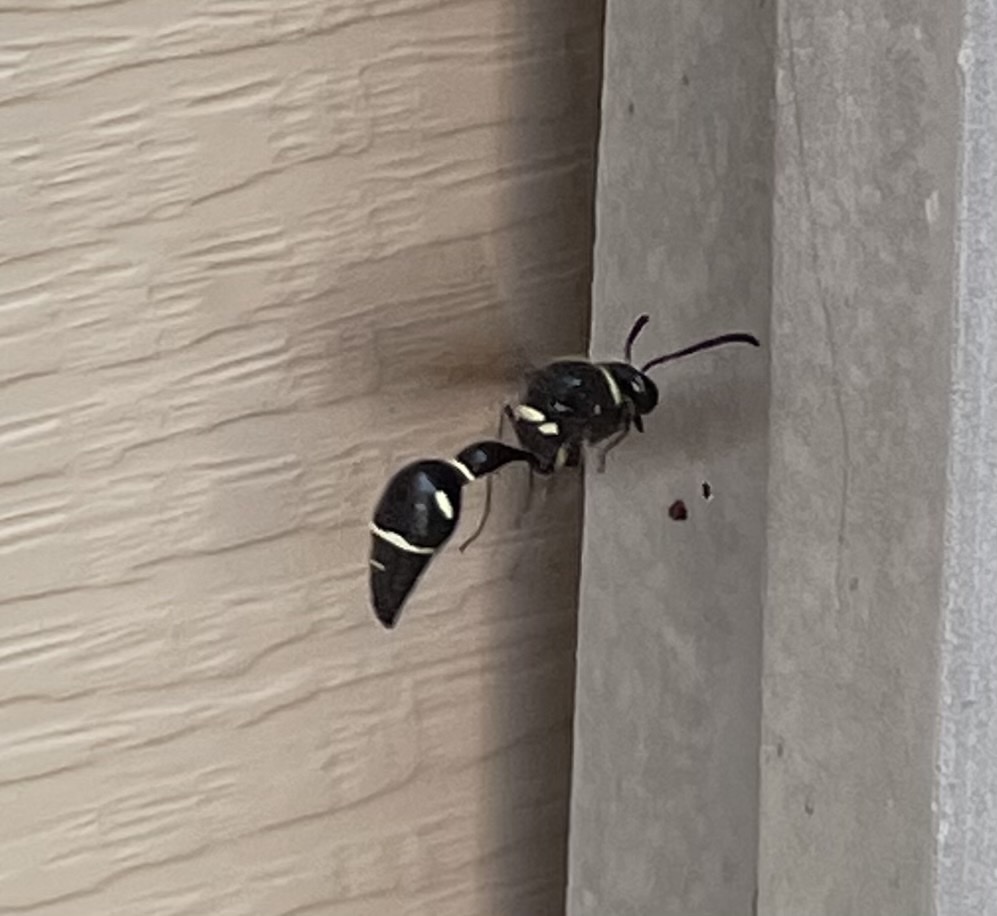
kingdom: Animalia
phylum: Arthropoda
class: Insecta
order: Hymenoptera
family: Vespidae
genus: Eumenes
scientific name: Eumenes fraternus
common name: Fraternal potter wasp
